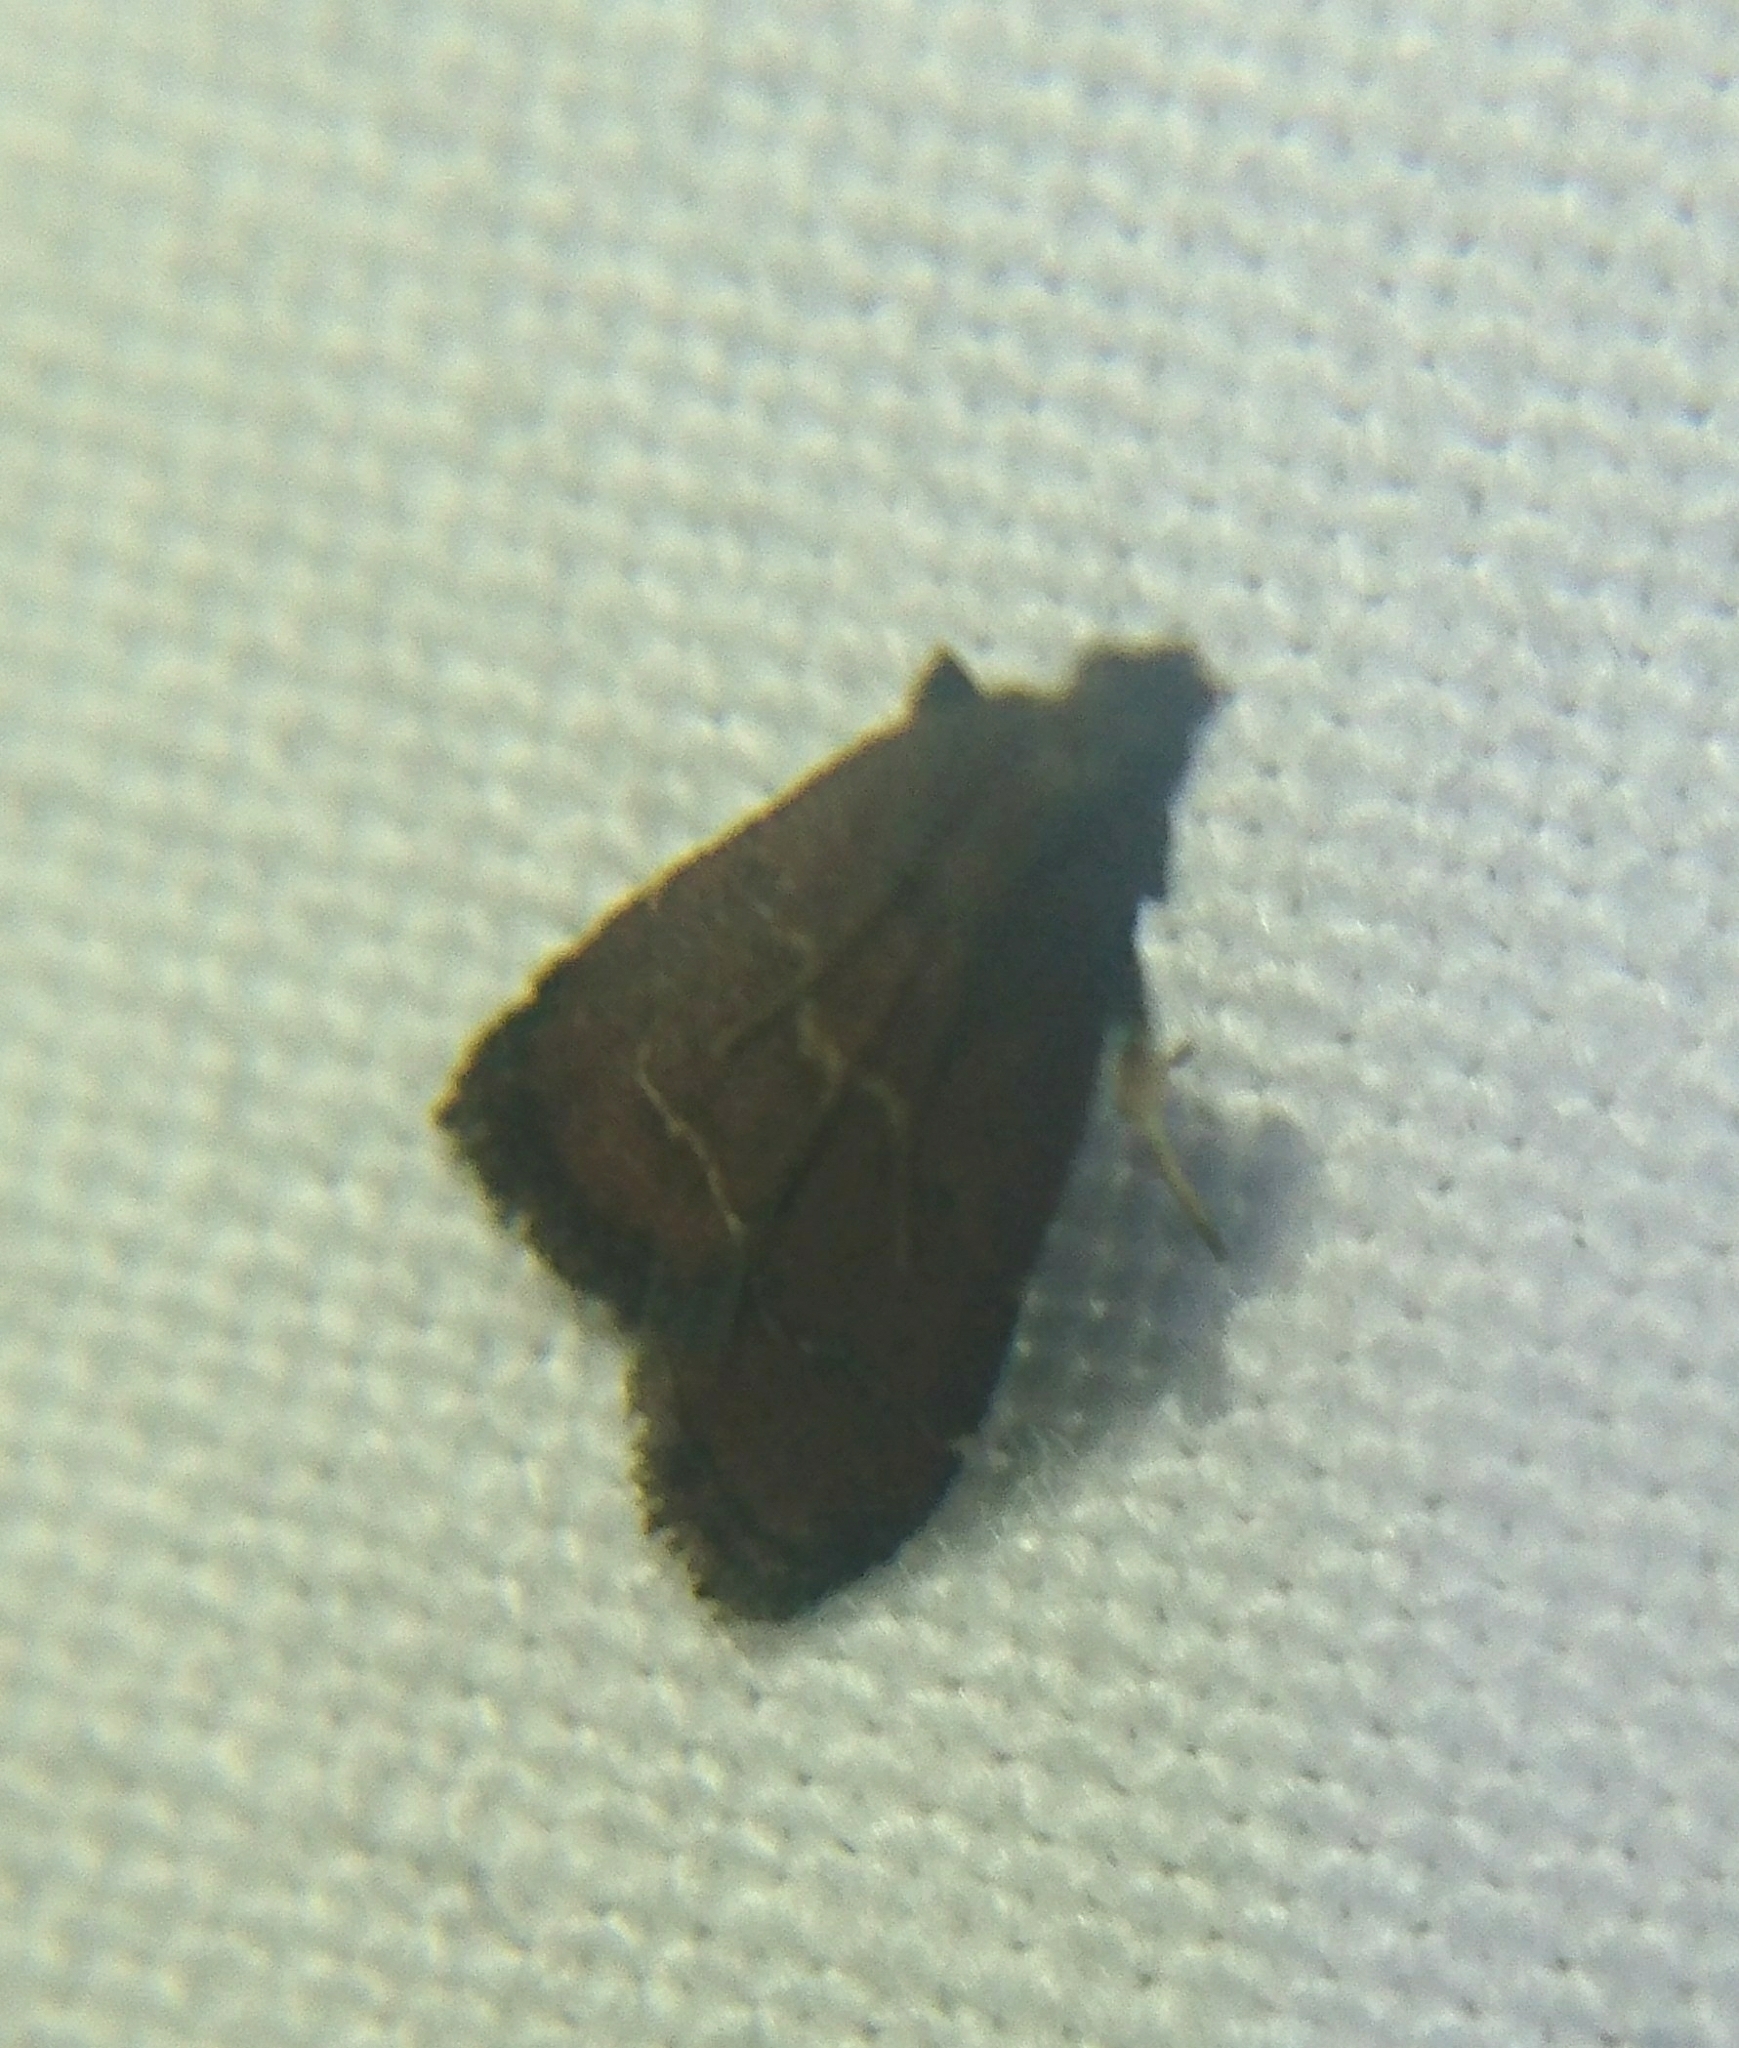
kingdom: Animalia
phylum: Arthropoda
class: Insecta
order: Lepidoptera
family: Pyralidae
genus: Arta
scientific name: Arta
